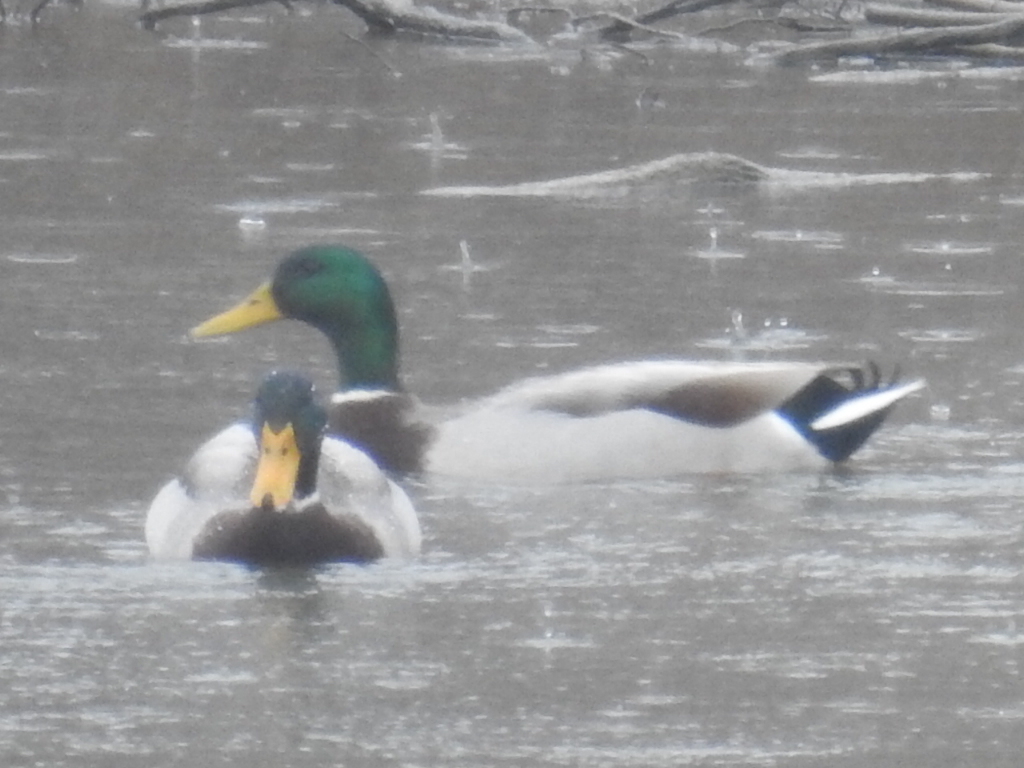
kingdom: Animalia
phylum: Chordata
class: Aves
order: Anseriformes
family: Anatidae
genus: Anas
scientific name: Anas platyrhynchos
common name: Mallard
